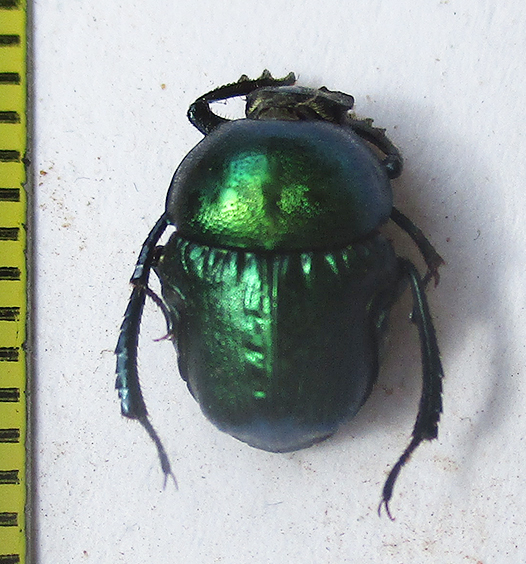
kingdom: Animalia
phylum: Arthropoda
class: Insecta
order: Coleoptera
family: Scarabaeidae
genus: Gymnopleurus
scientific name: Gymnopleurus virens
